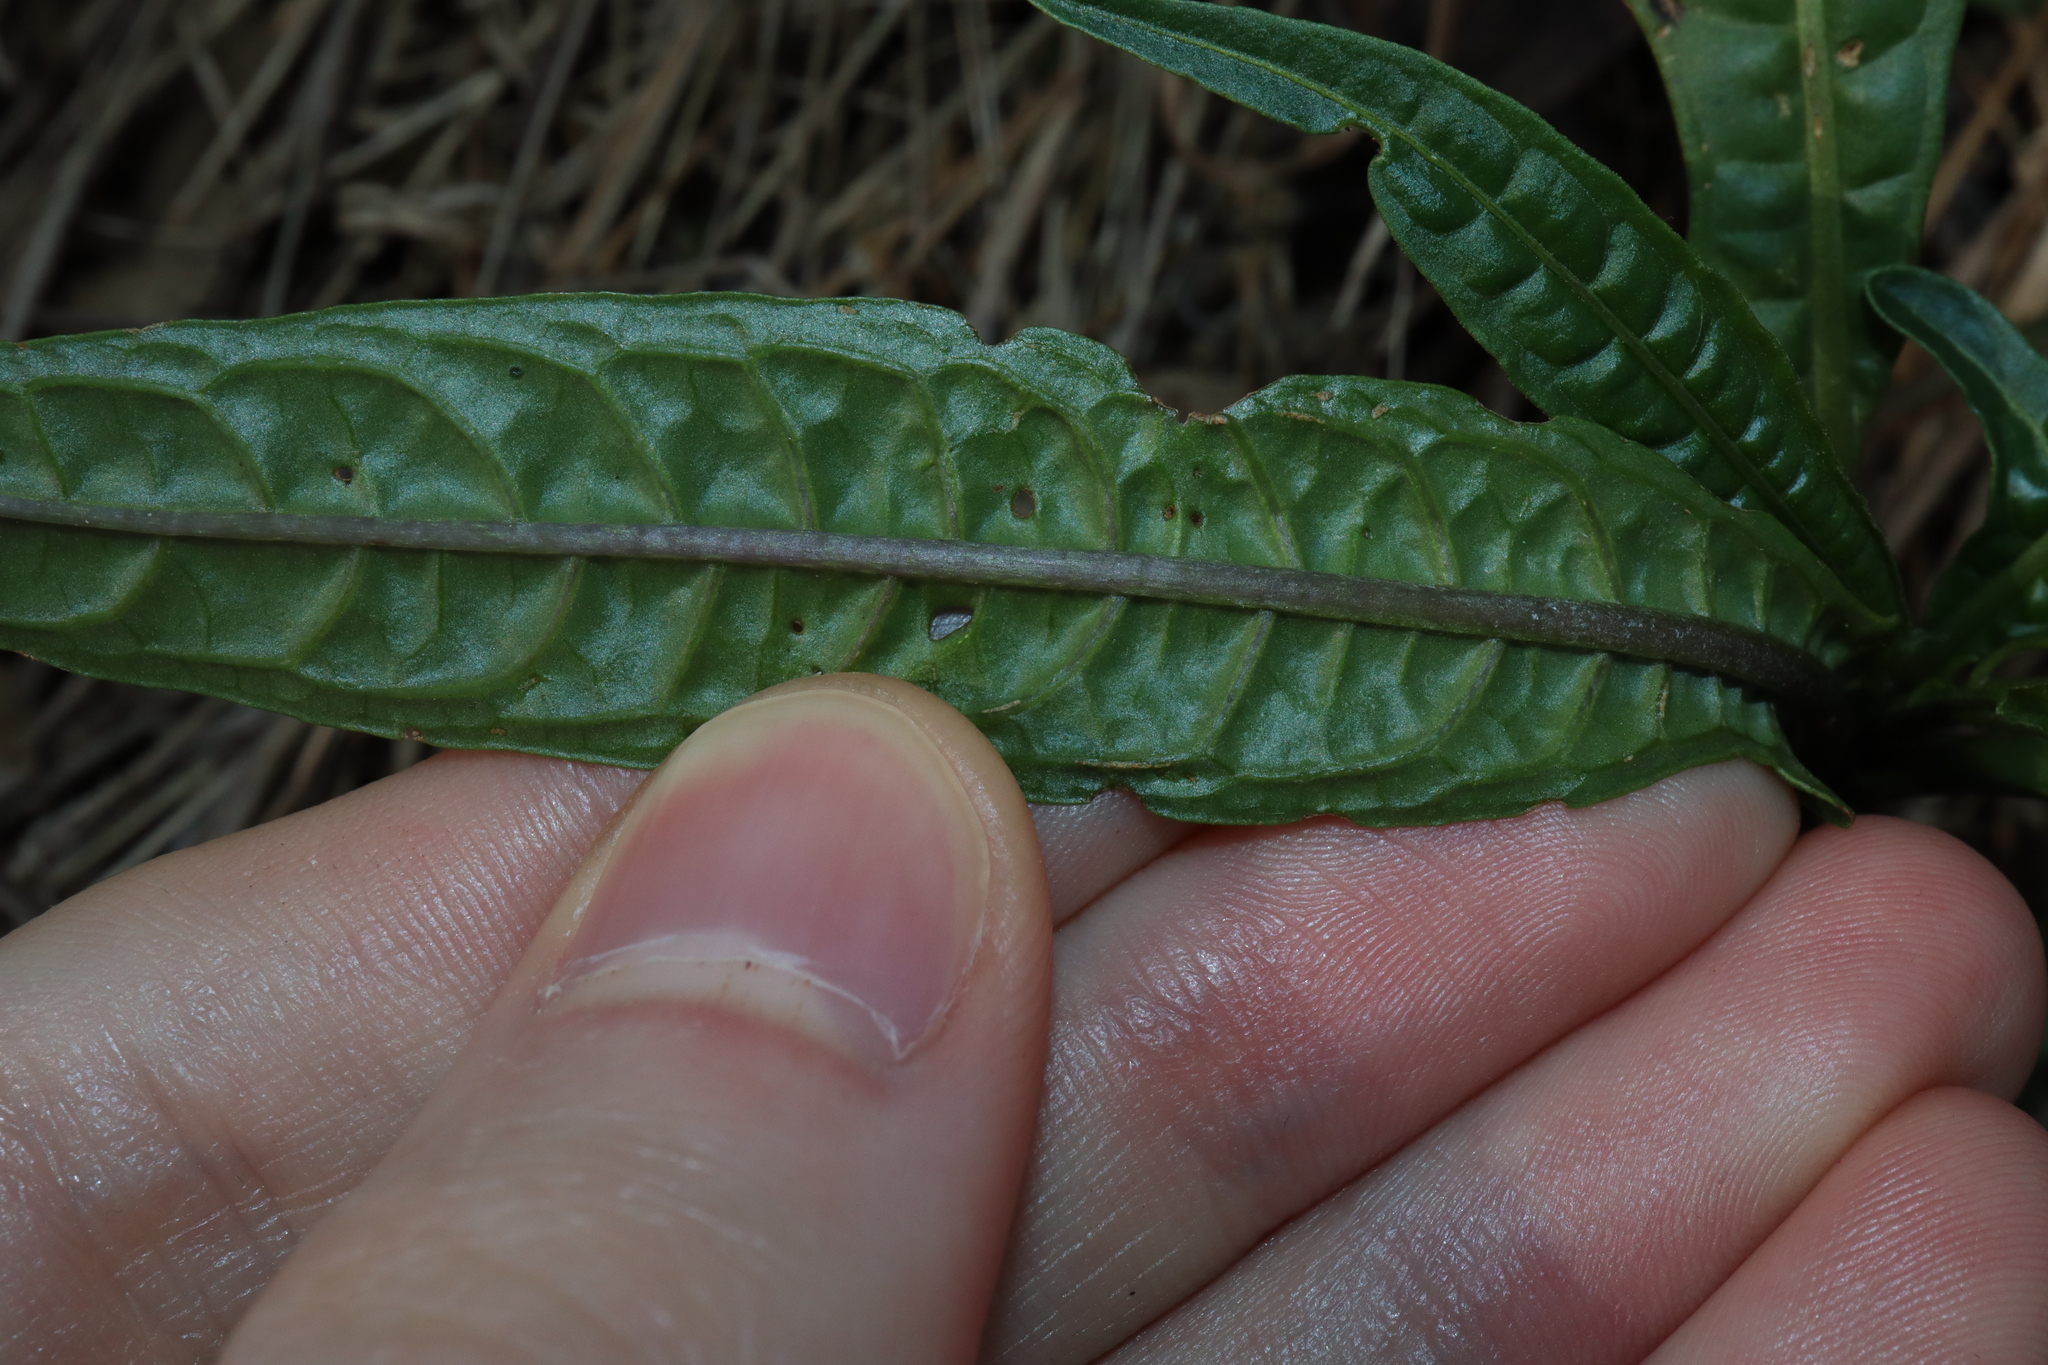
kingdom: Plantae
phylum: Tracheophyta
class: Magnoliopsida
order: Solanales
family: Solanaceae
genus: Solanum
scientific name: Solanum aviculare
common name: New zealand nightshade
